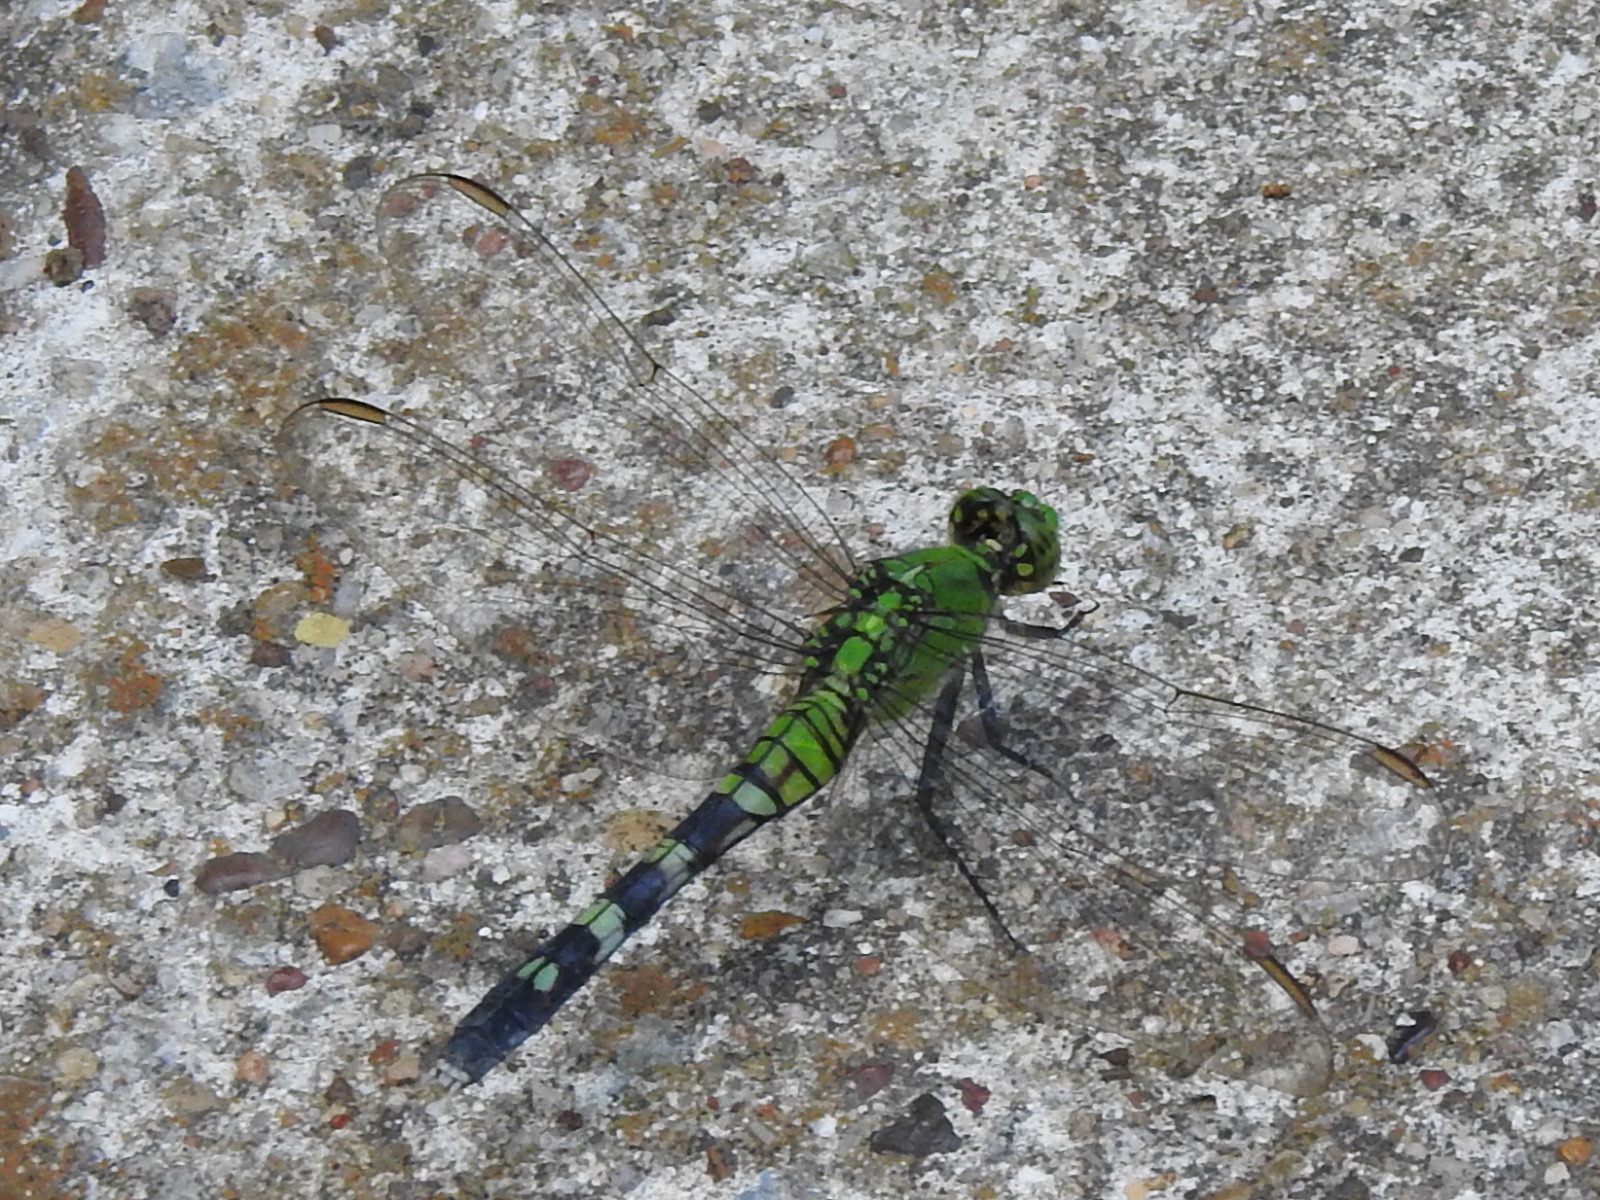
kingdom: Animalia
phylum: Arthropoda
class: Insecta
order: Odonata
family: Libellulidae
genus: Erythemis
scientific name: Erythemis simplicicollis
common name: Eastern pondhawk
